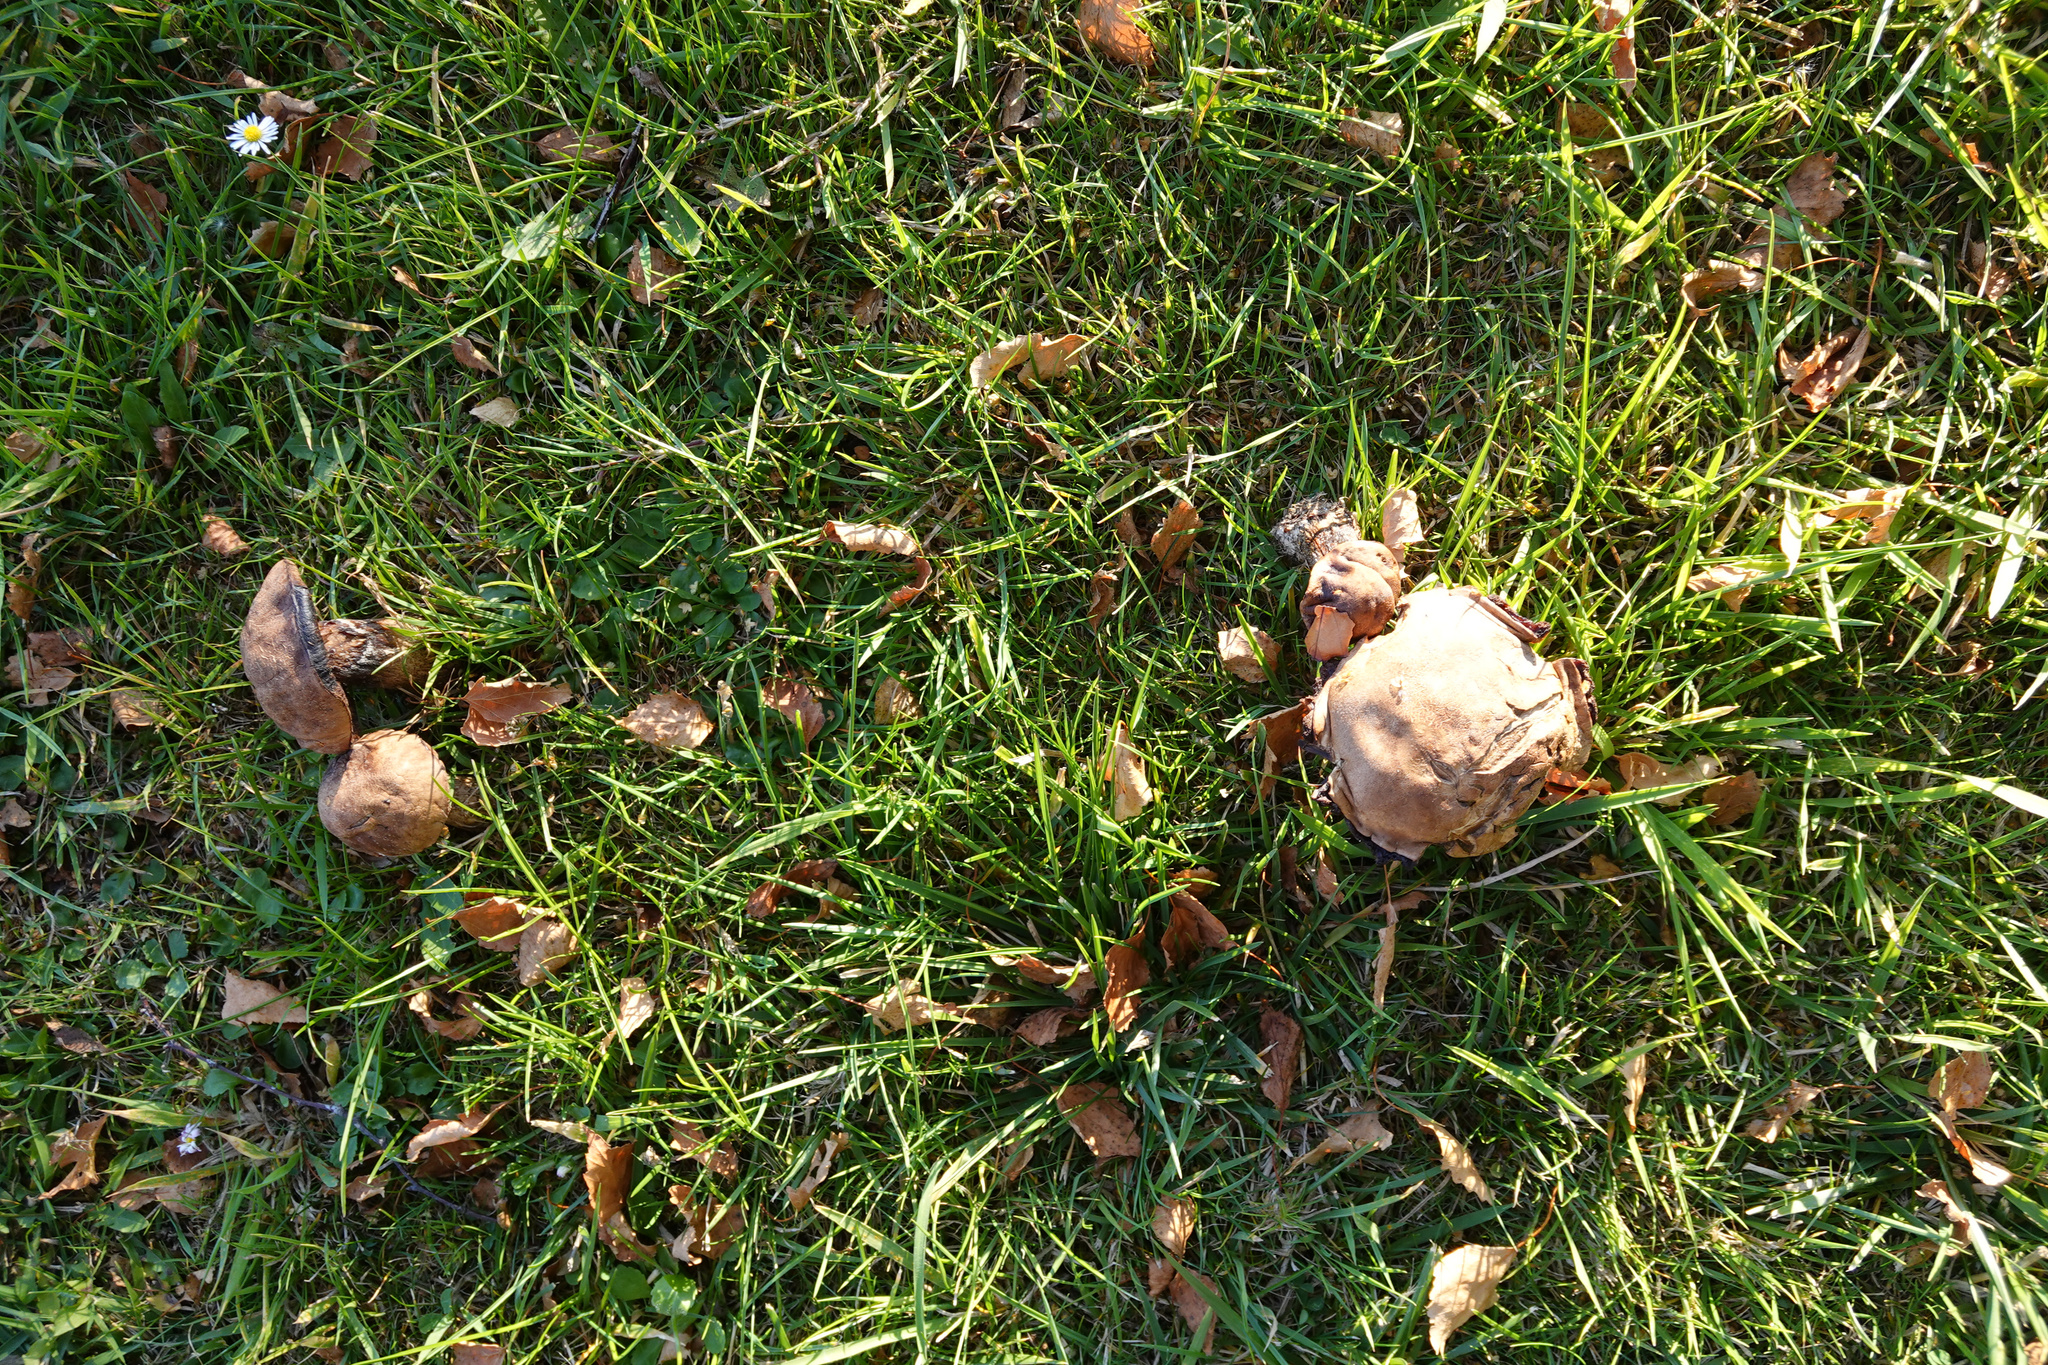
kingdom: Fungi
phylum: Basidiomycota
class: Agaricomycetes
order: Boletales
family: Boletaceae
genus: Leccinum
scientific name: Leccinum scabrum
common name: Blushing bolete
